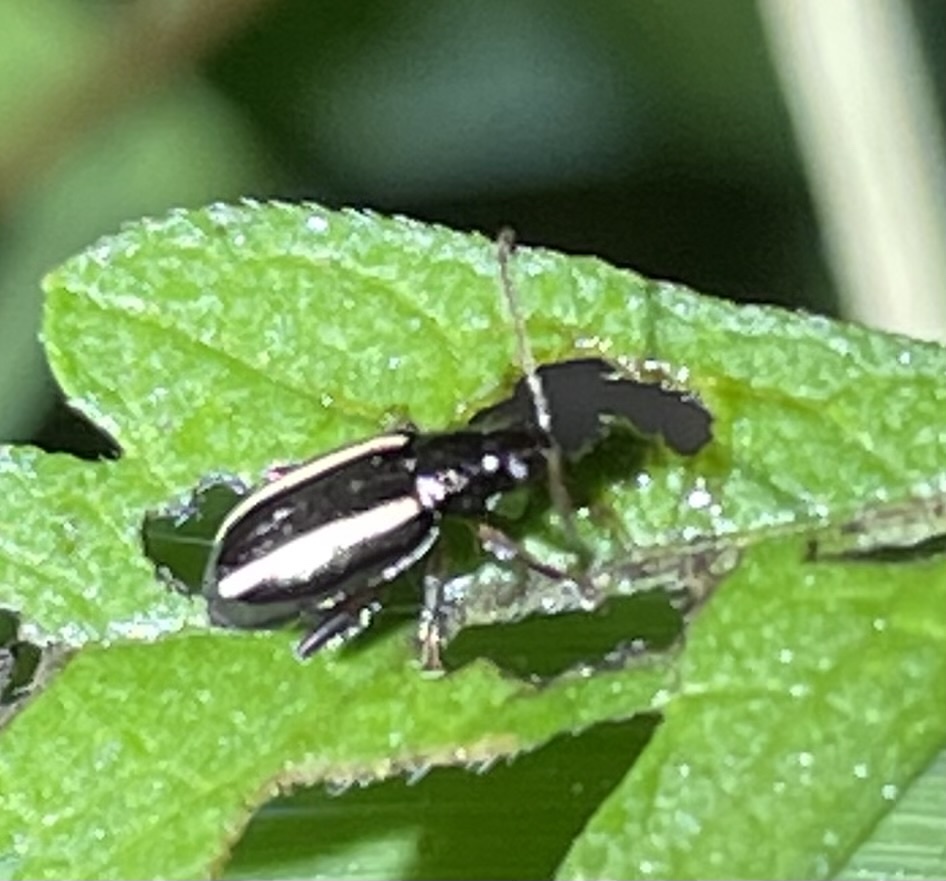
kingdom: Animalia
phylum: Arthropoda
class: Insecta
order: Coleoptera
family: Chrysomelidae
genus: Systena
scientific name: Systena elongata
